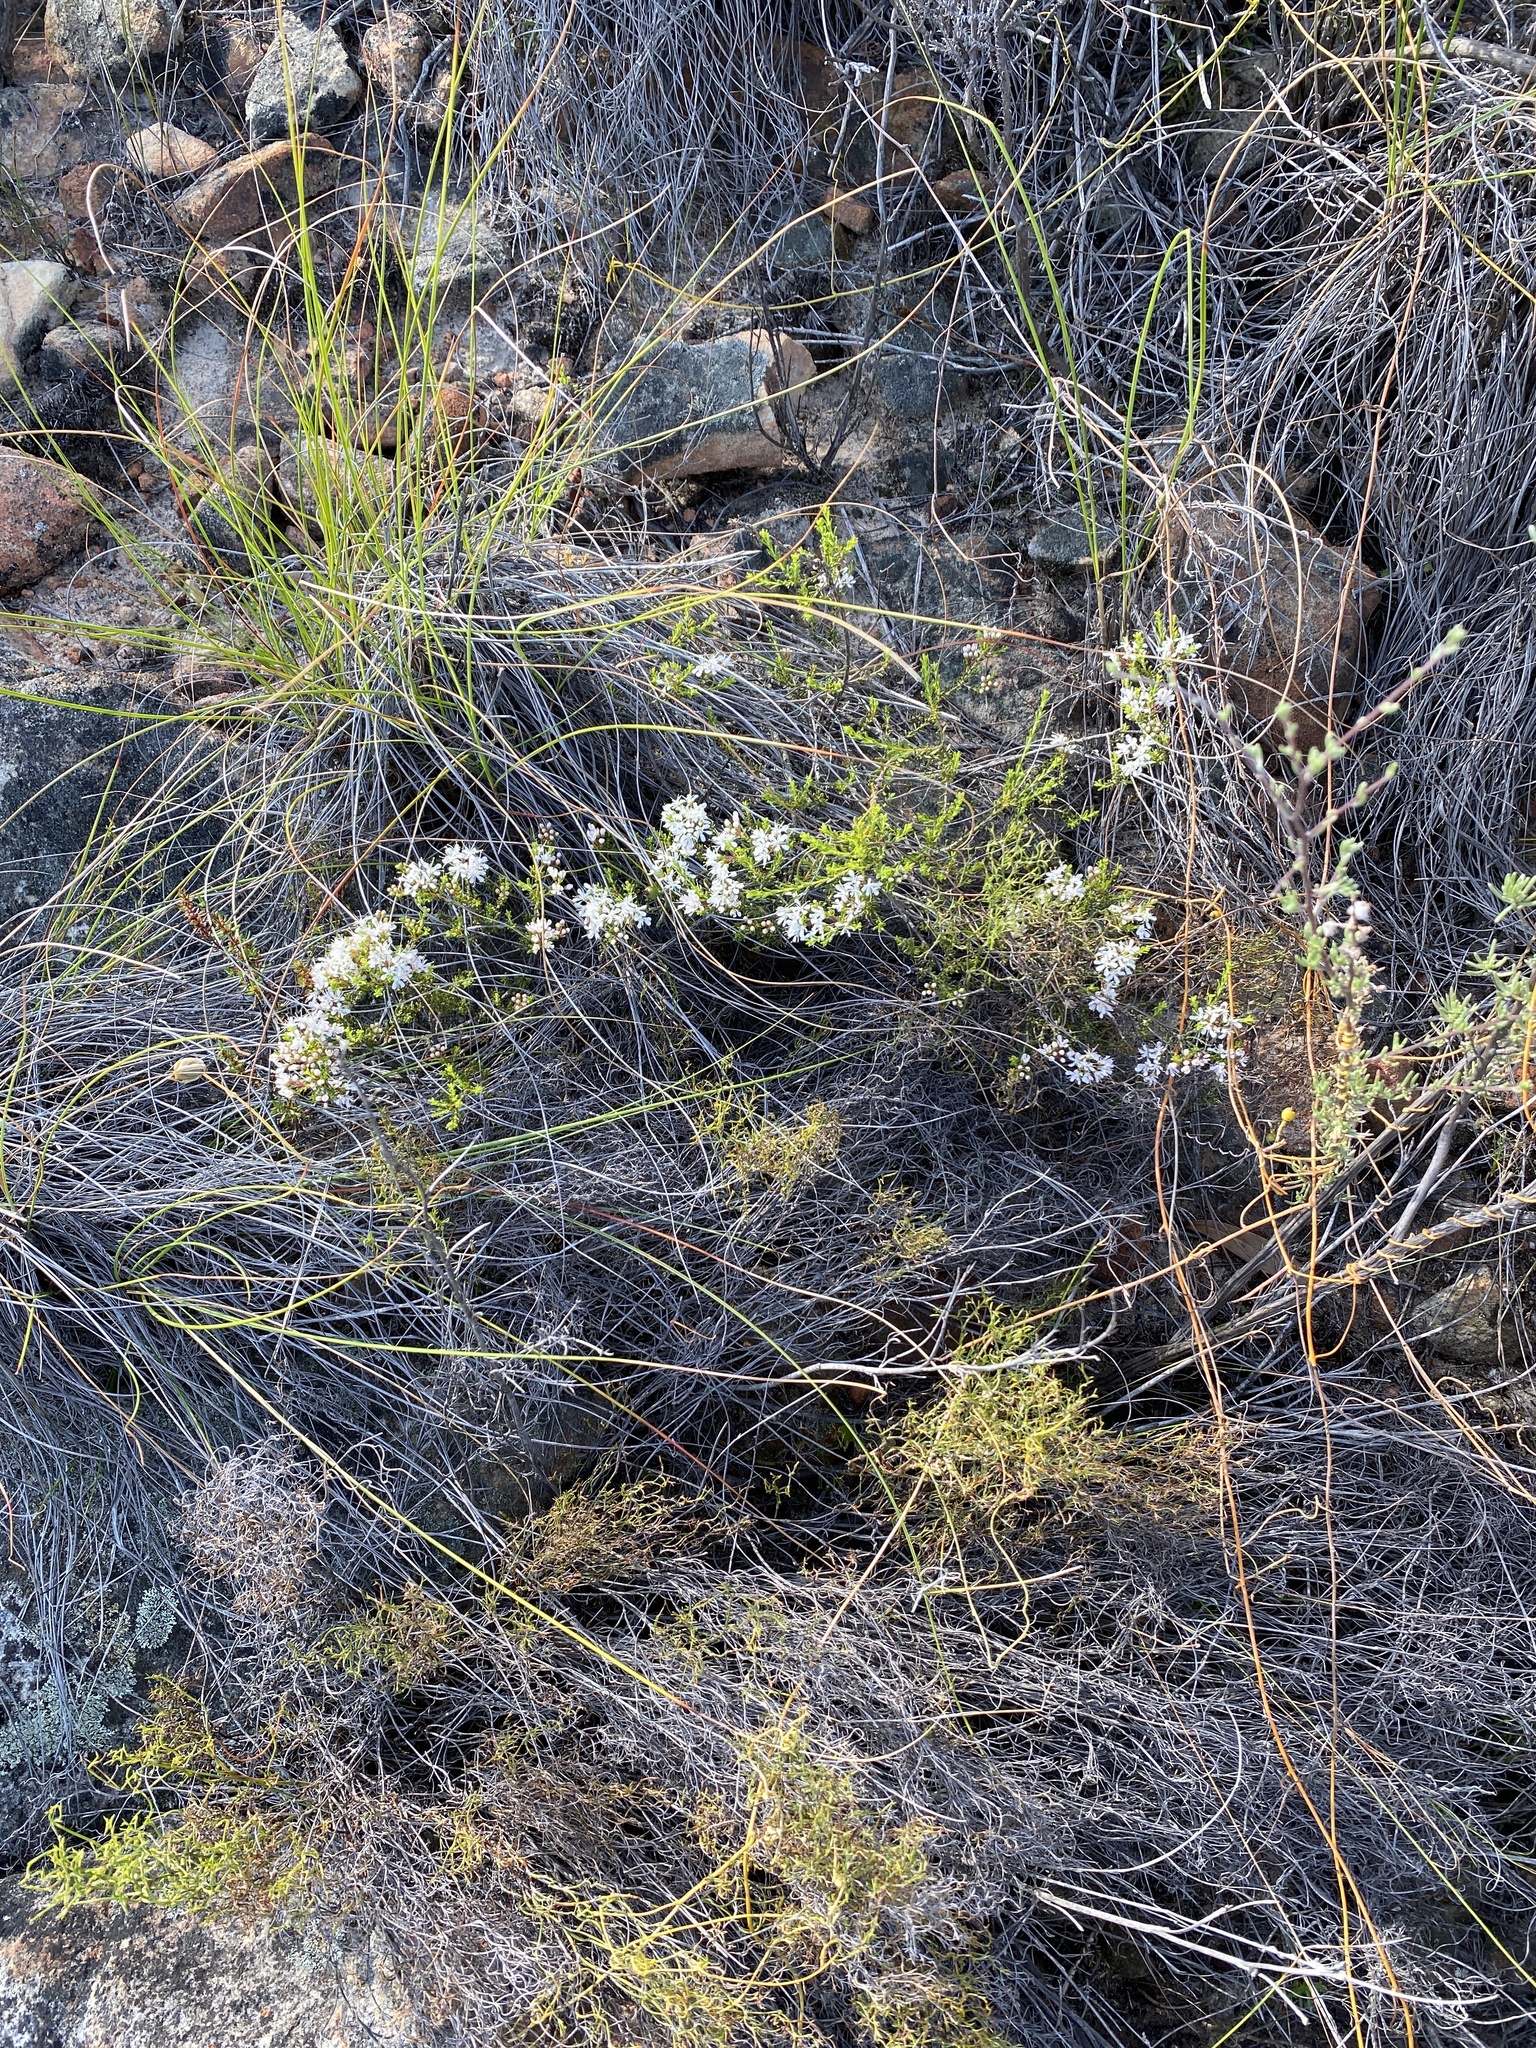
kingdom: Plantae
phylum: Tracheophyta
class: Magnoliopsida
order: Sapindales
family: Rutaceae
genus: Agathosma
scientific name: Agathosma crassifolia
